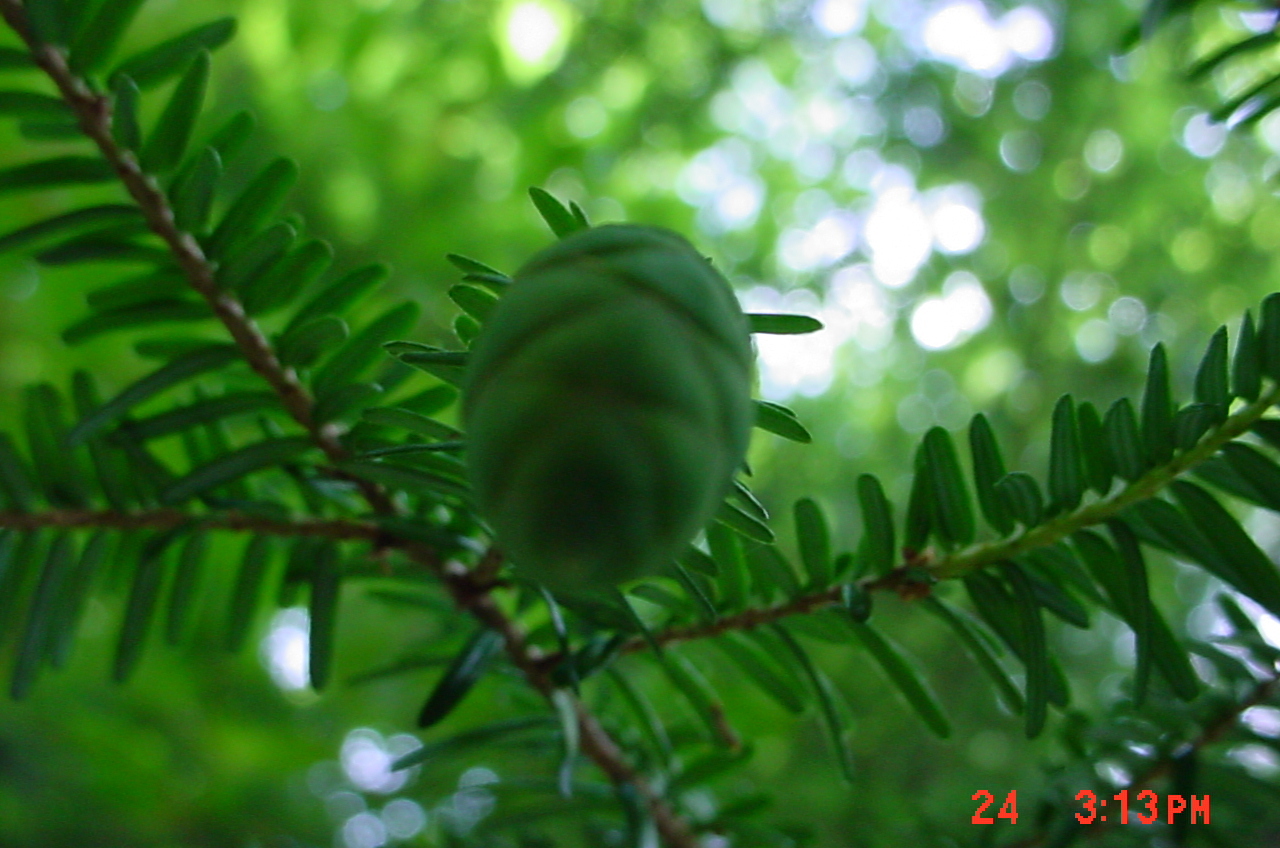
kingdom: Plantae
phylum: Tracheophyta
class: Pinopsida
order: Pinales
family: Pinaceae
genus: Tsuga
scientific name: Tsuga canadensis
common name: Eastern hemlock
